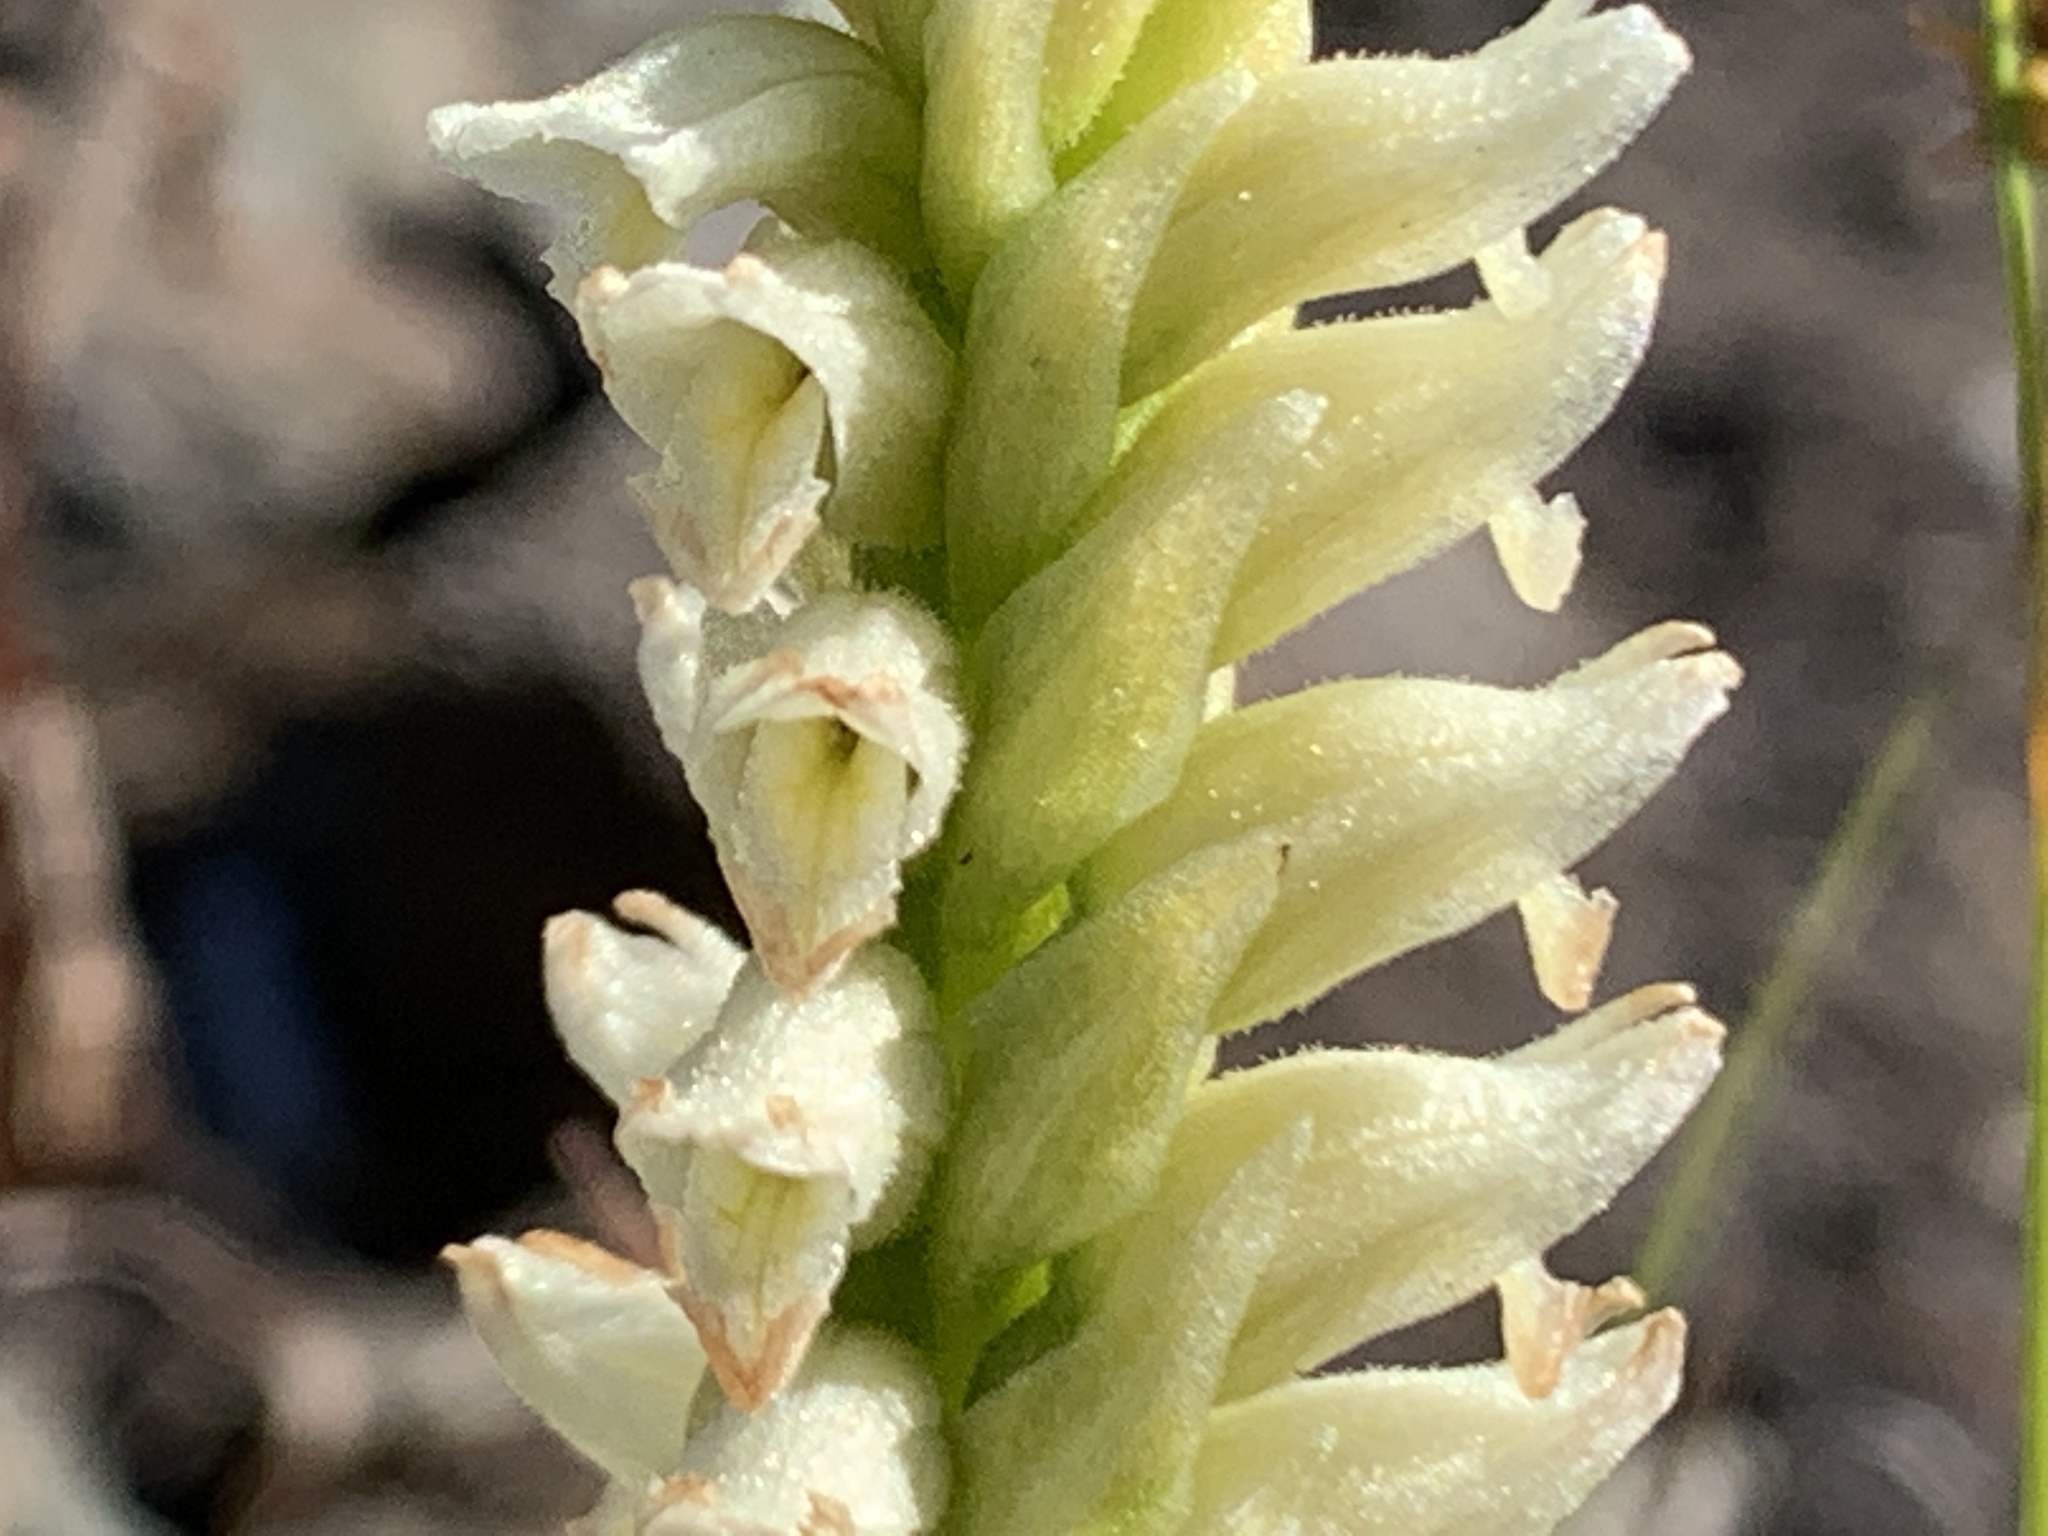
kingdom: Plantae
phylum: Tracheophyta
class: Liliopsida
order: Asparagales
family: Orchidaceae
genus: Spiranthes
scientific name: Spiranthes romanzoffiana
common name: Irish lady's-tresses
